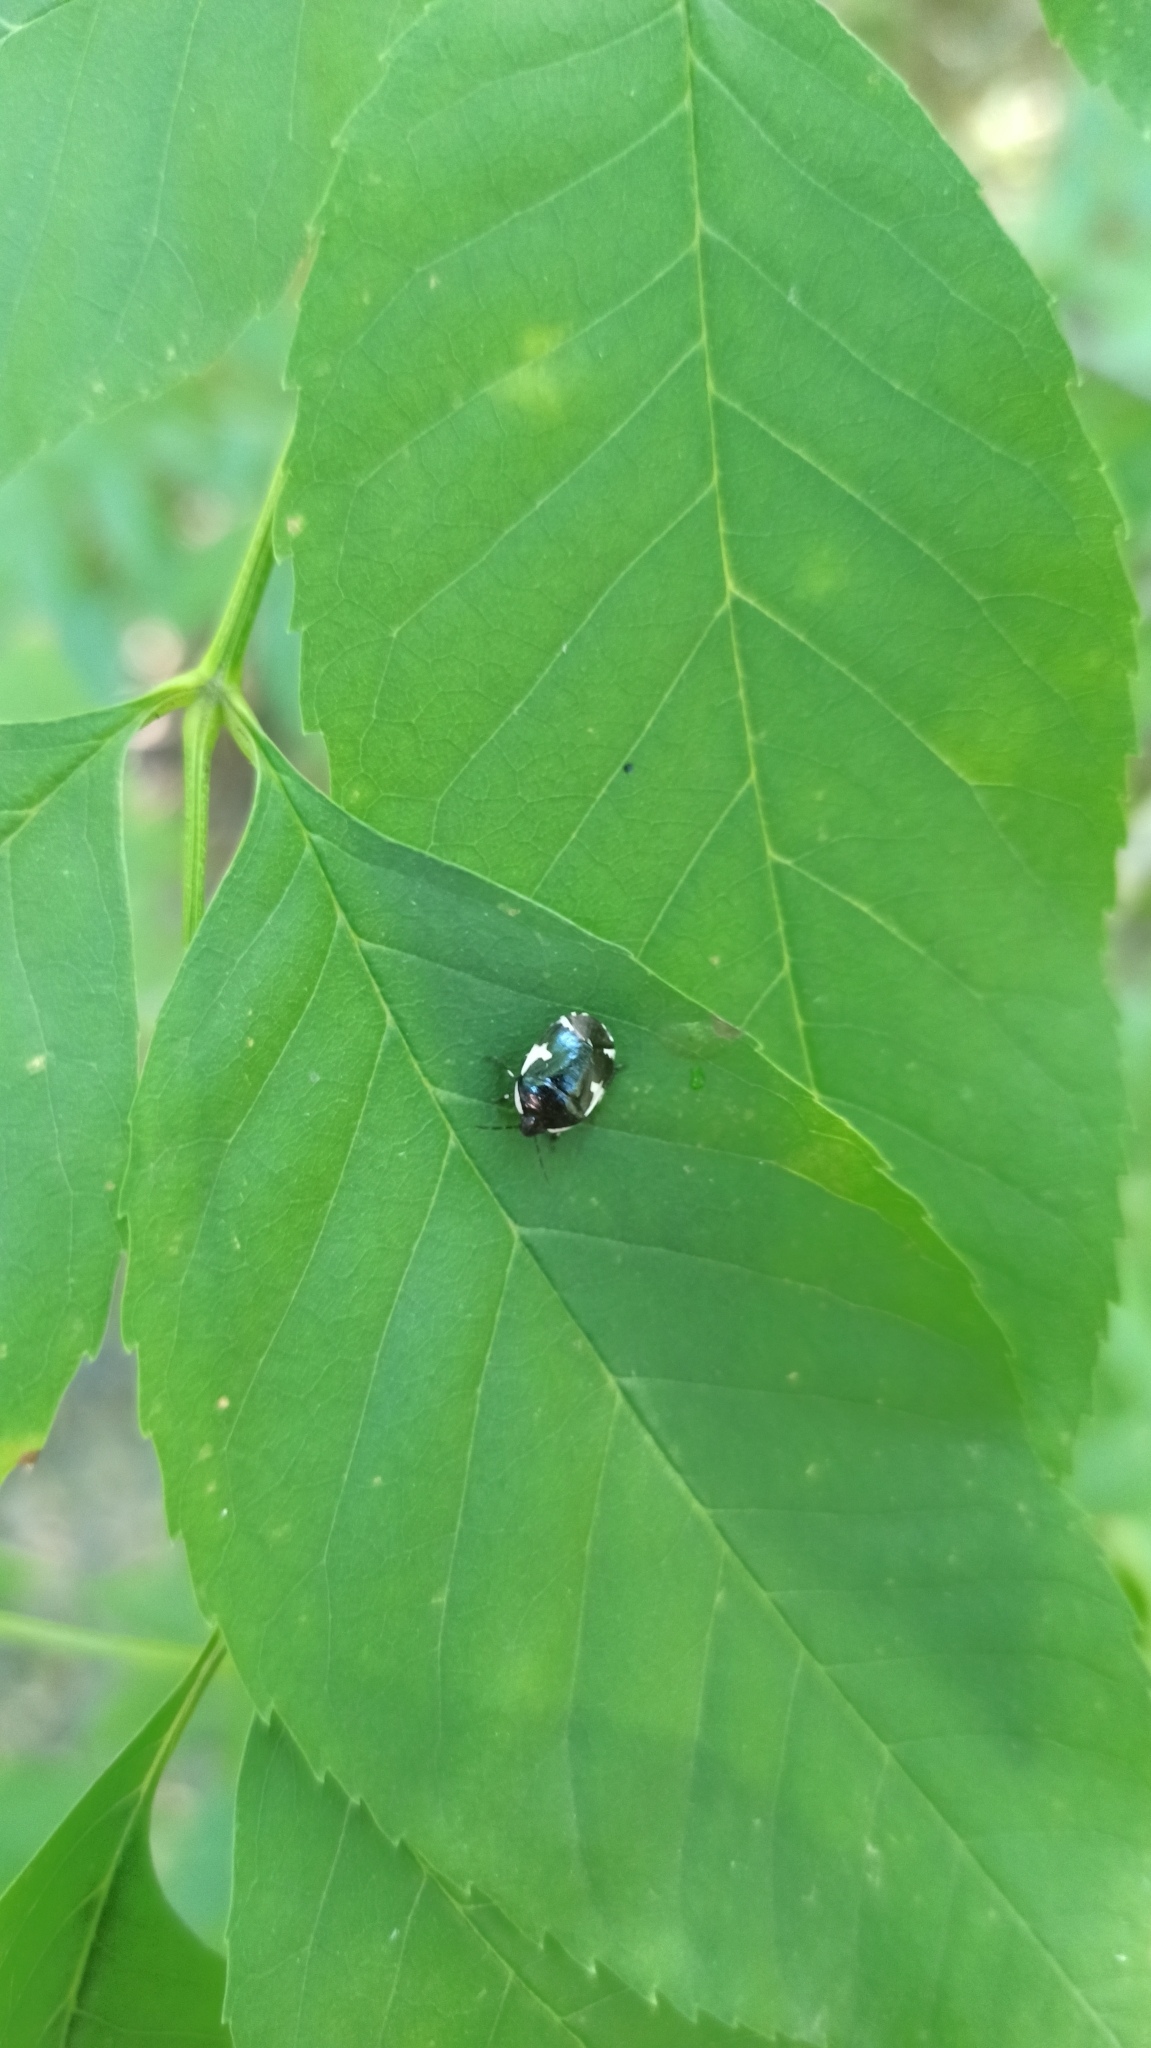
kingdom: Animalia
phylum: Arthropoda
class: Insecta
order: Hemiptera
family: Cydnidae
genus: Tritomegas
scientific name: Tritomegas sexmaculatus
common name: Rambur's pied shieldbug
